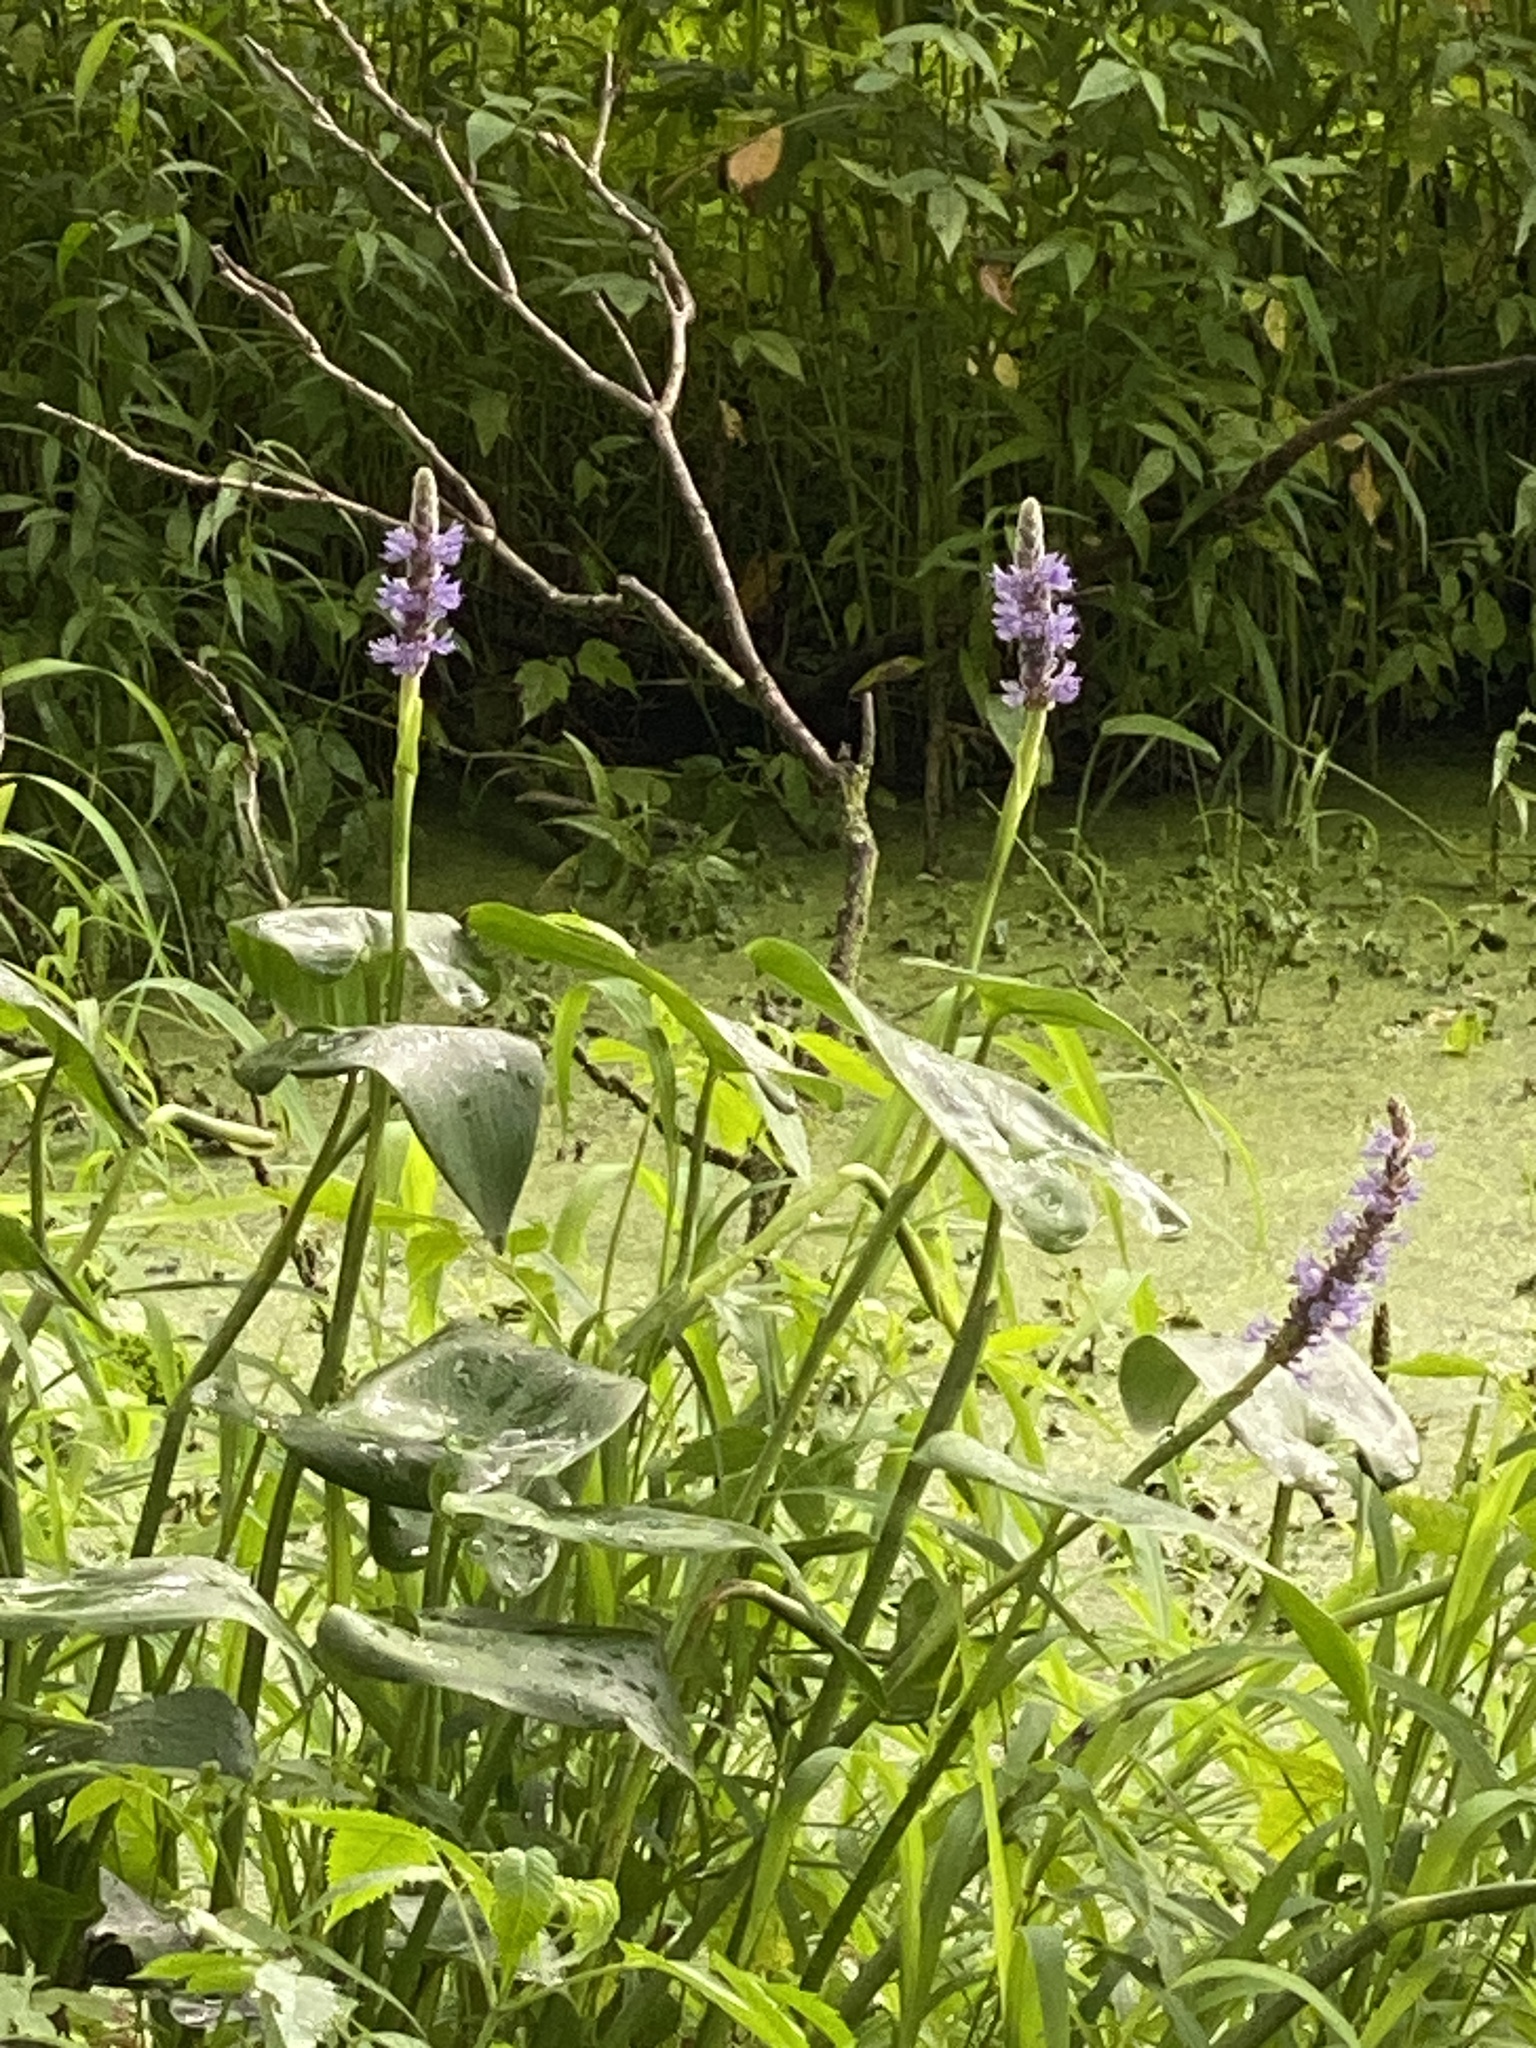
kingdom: Plantae
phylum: Tracheophyta
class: Liliopsida
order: Commelinales
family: Pontederiaceae
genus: Pontederia
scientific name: Pontederia cordata
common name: Pickerelweed
